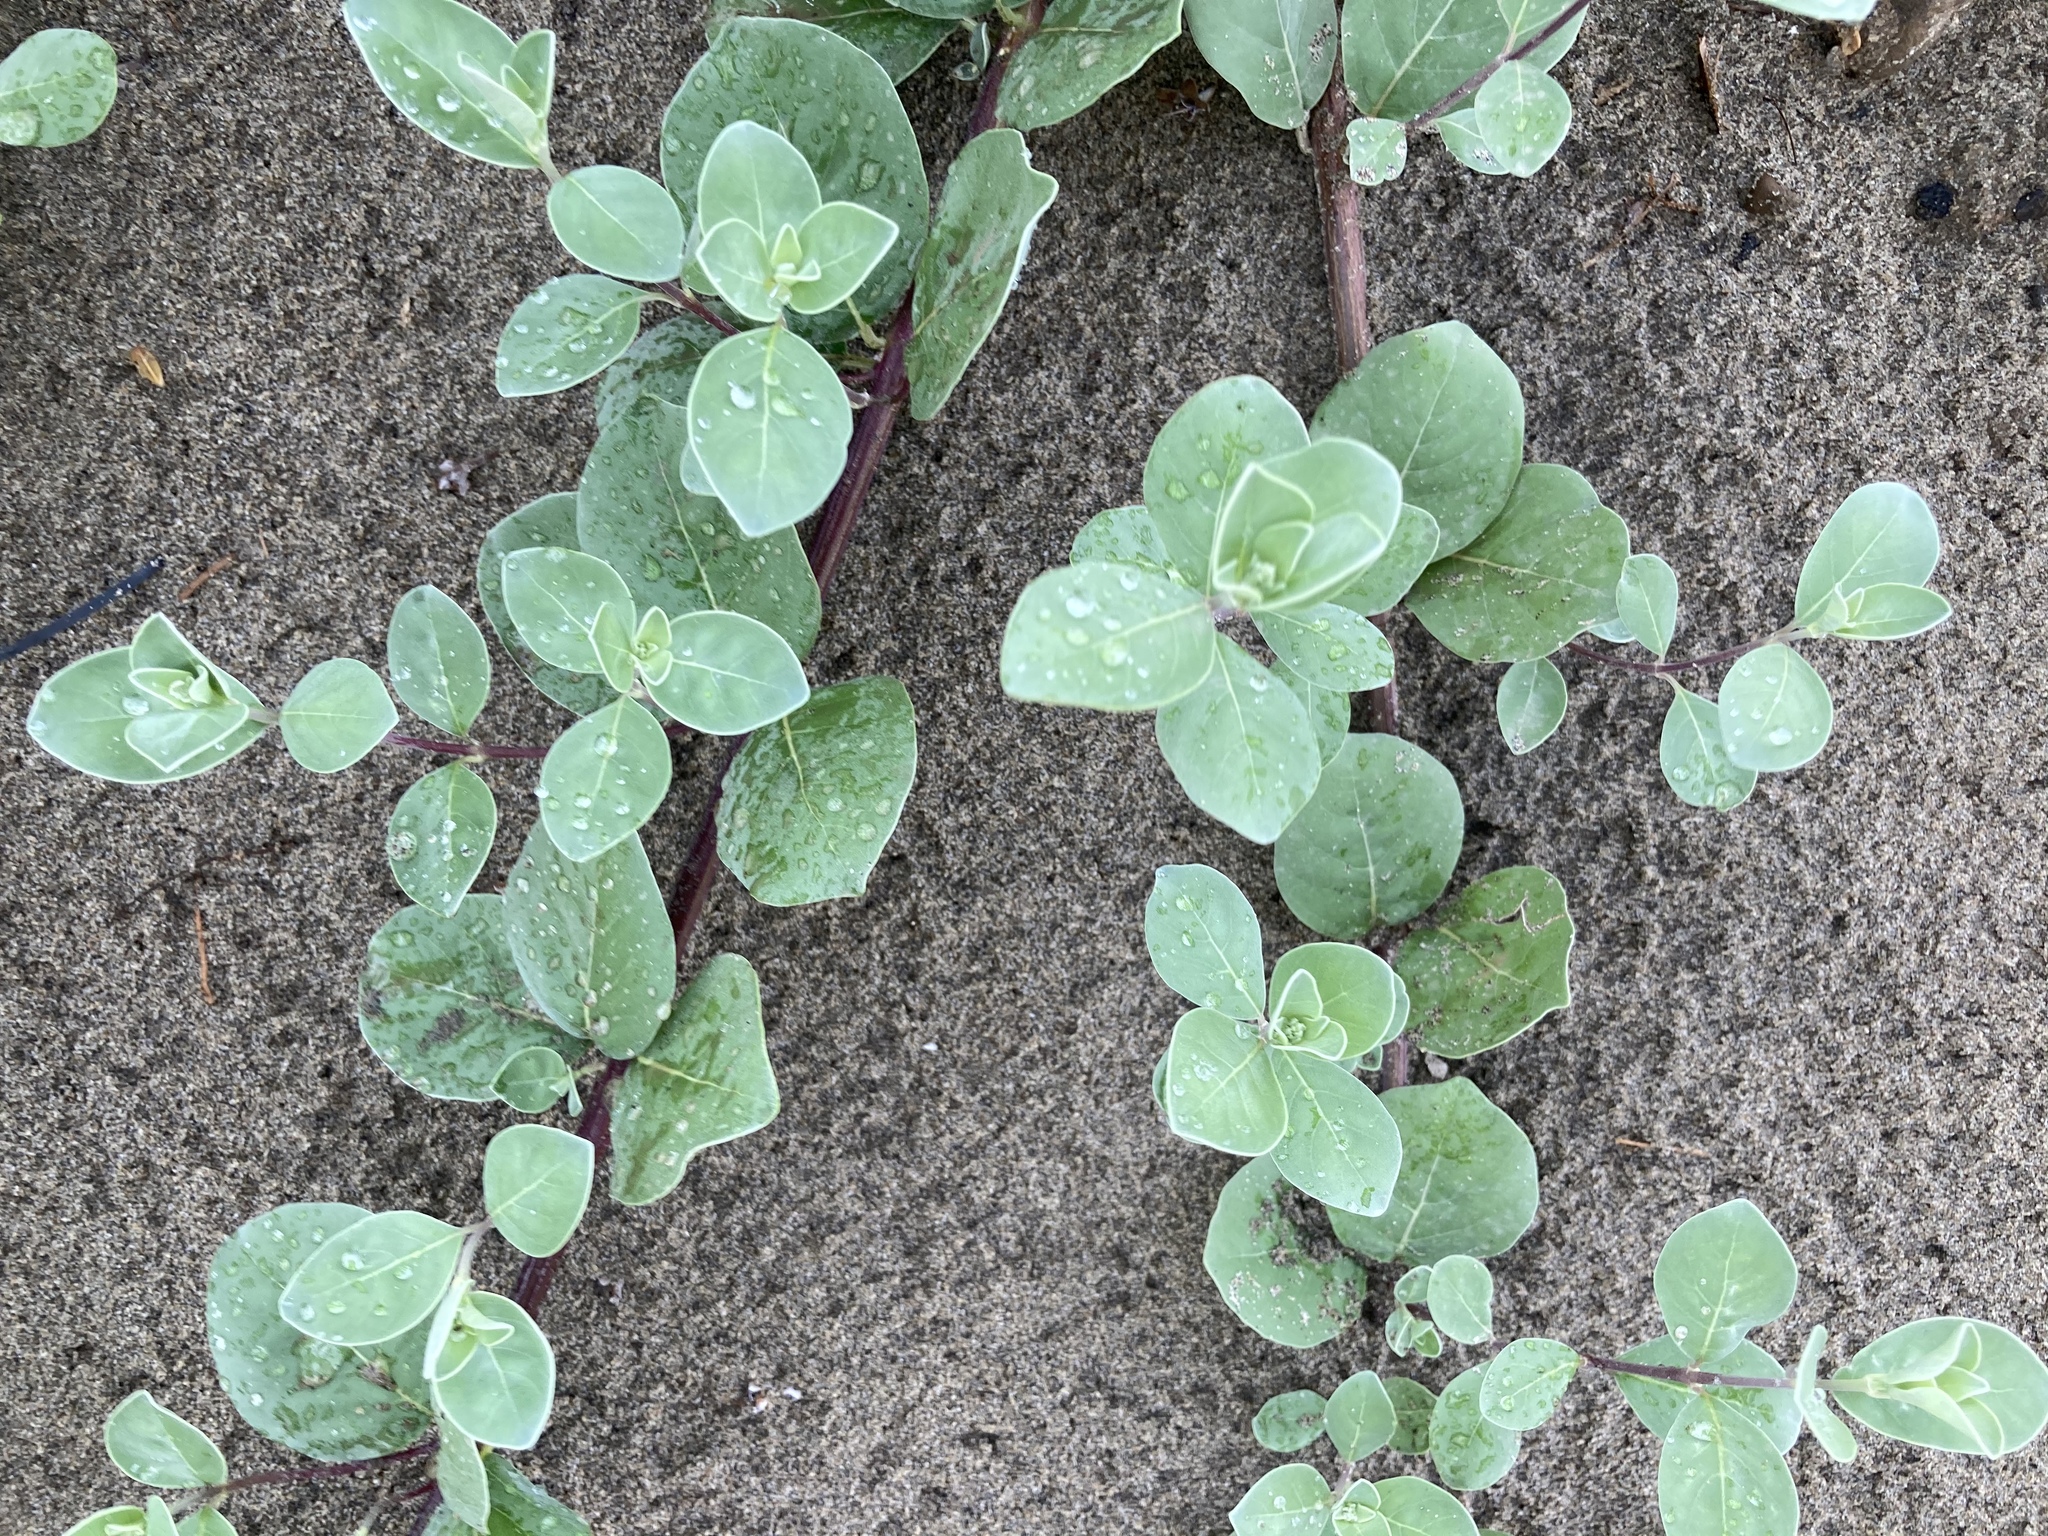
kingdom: Plantae
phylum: Tracheophyta
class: Magnoliopsida
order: Lamiales
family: Lamiaceae
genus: Vitex
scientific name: Vitex rotundifolia
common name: Beach vitex
